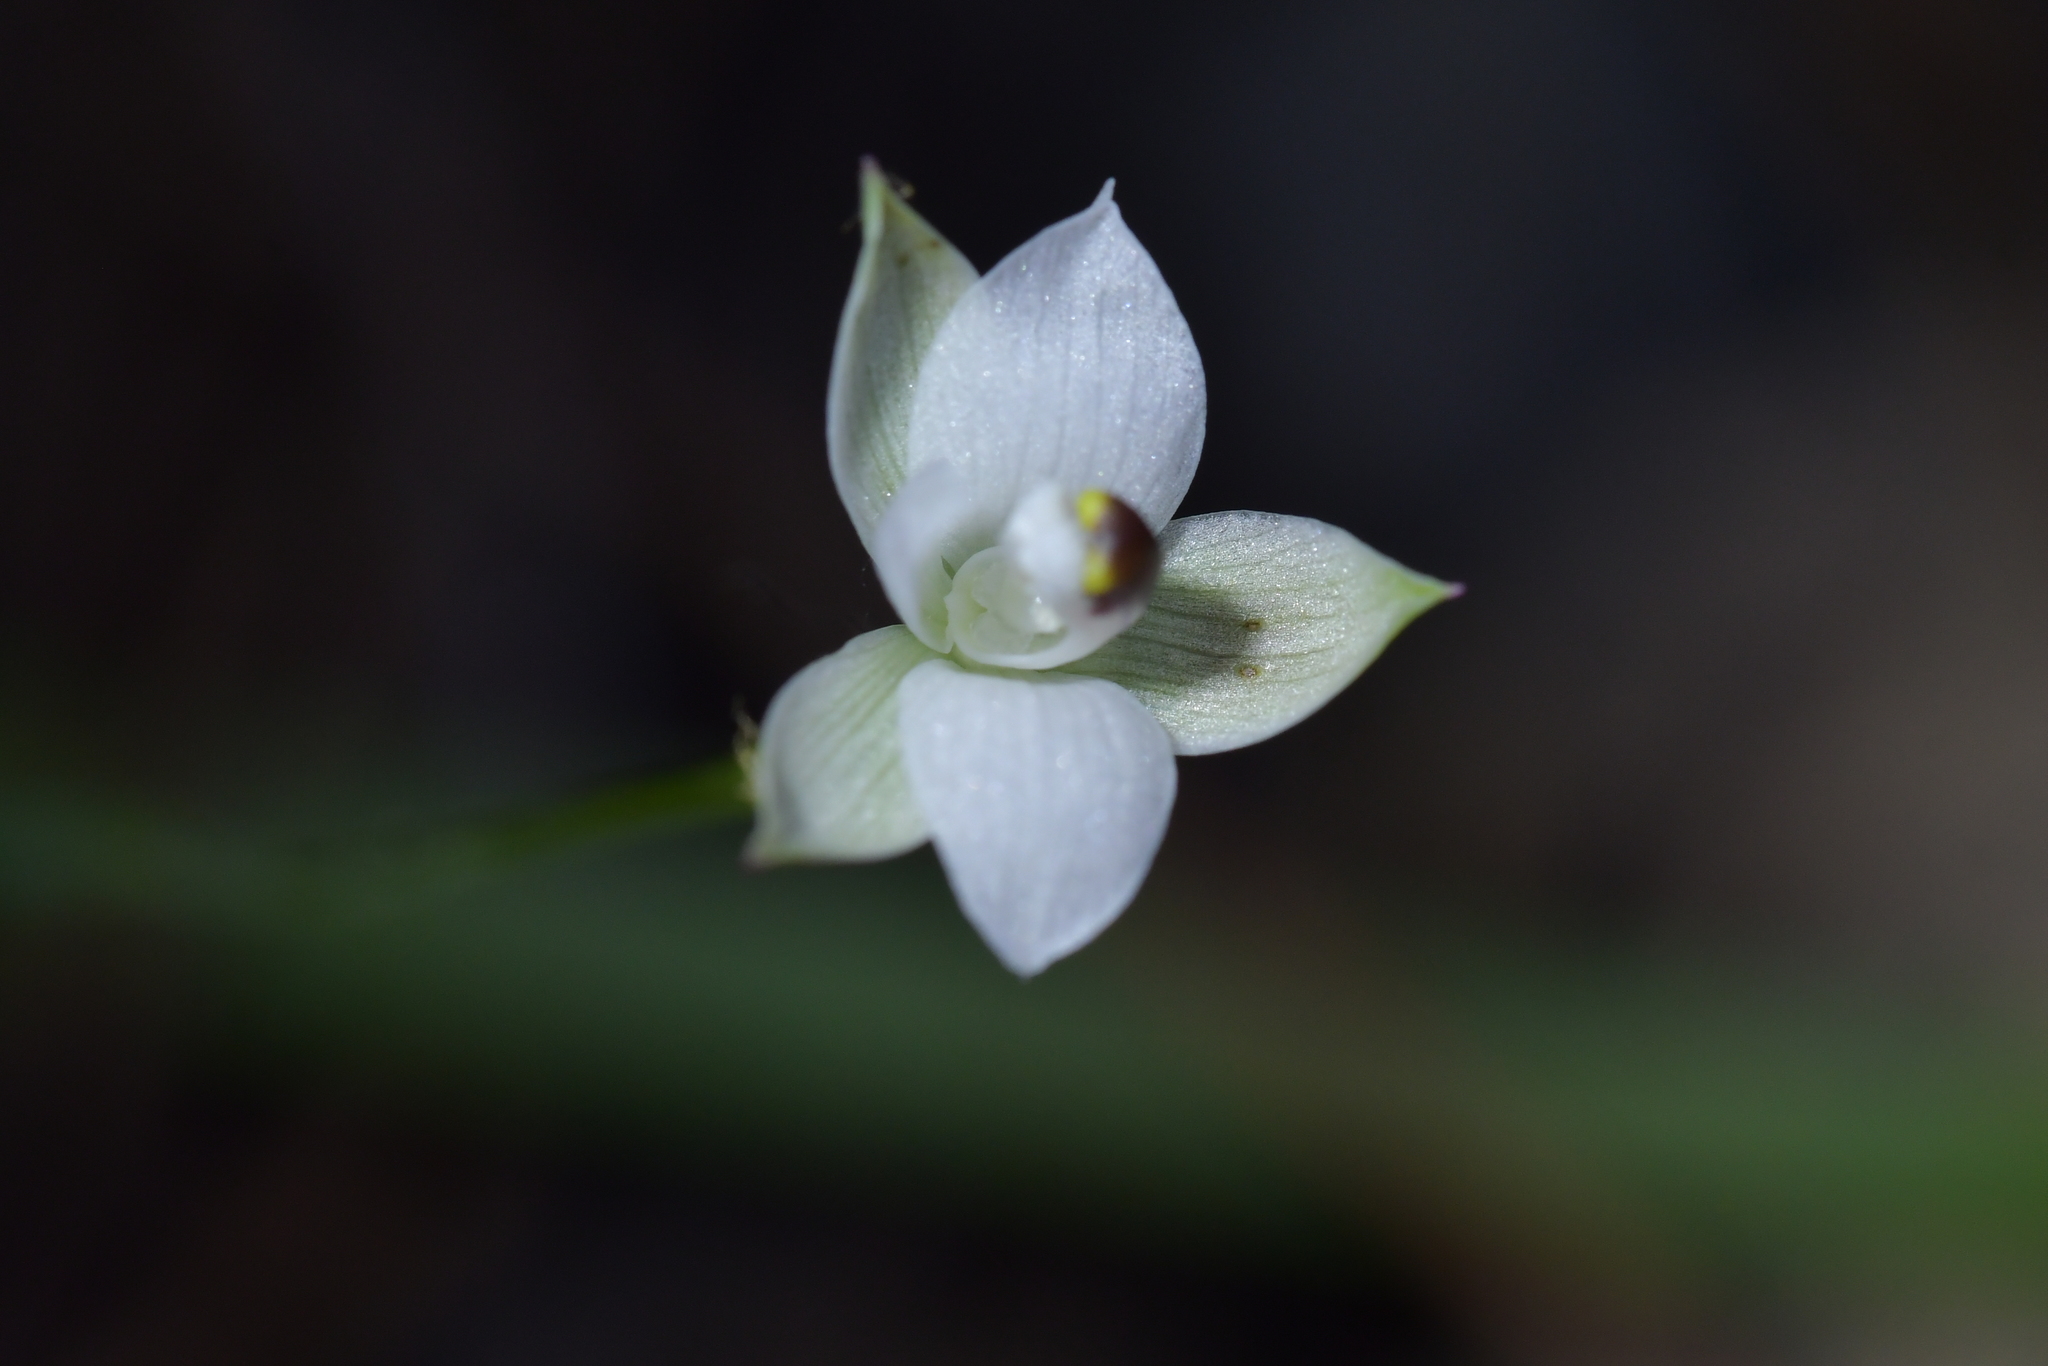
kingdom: Plantae
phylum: Tracheophyta
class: Liliopsida
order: Asparagales
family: Orchidaceae
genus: Thelymitra
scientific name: Thelymitra longifolia
